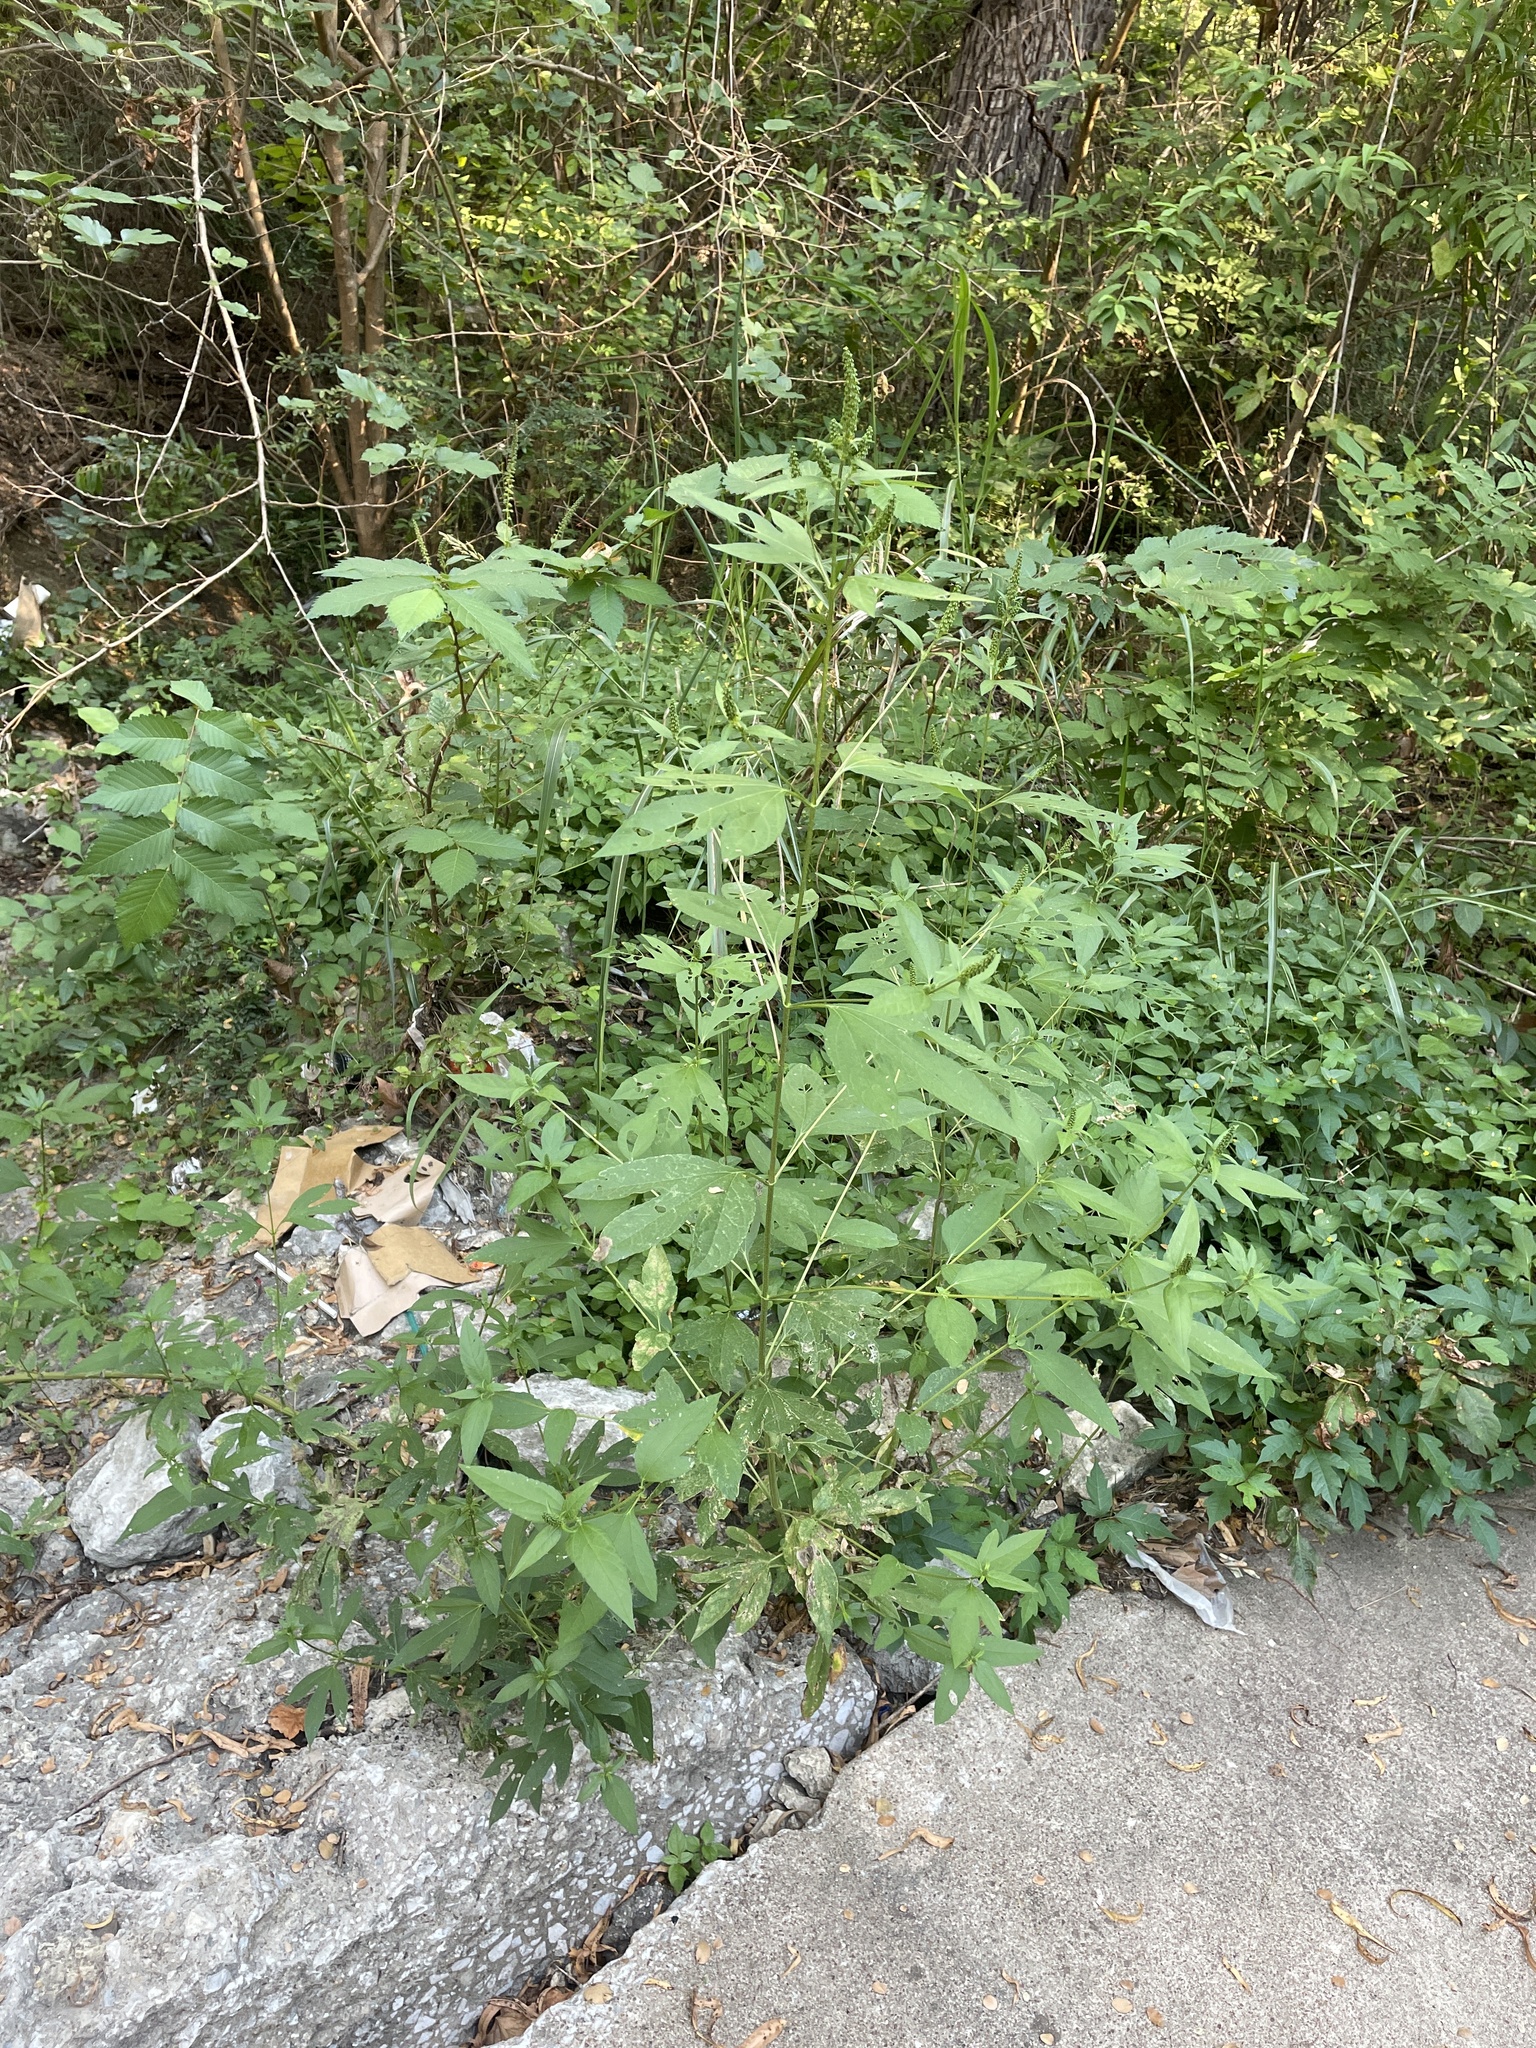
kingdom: Plantae
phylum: Tracheophyta
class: Magnoliopsida
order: Asterales
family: Asteraceae
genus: Ambrosia
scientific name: Ambrosia trifida
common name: Giant ragweed
